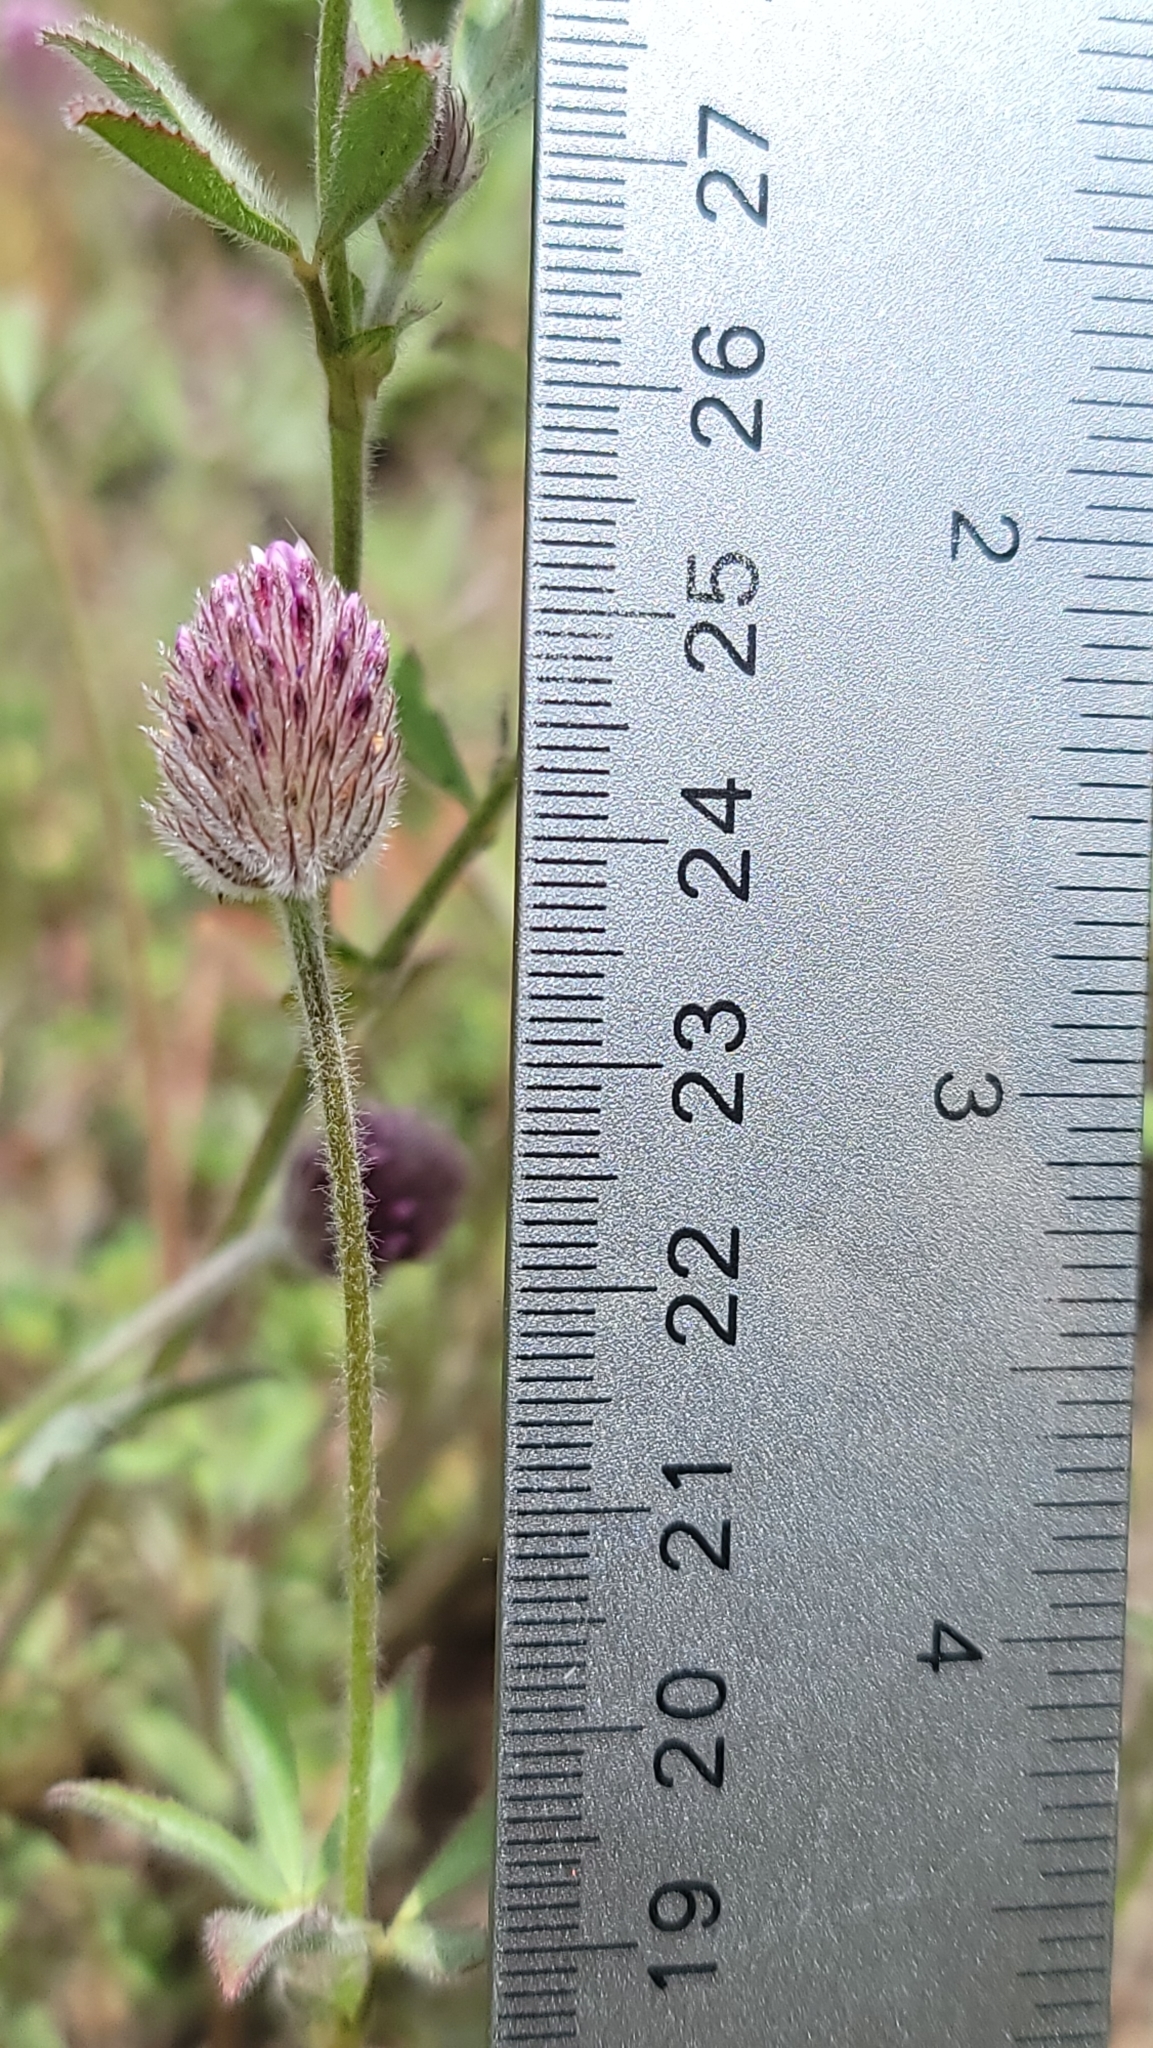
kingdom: Plantae
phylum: Tracheophyta
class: Magnoliopsida
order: Fabales
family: Fabaceae
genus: Trifolium
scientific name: Trifolium albopurpureum
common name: Rancheria clover
